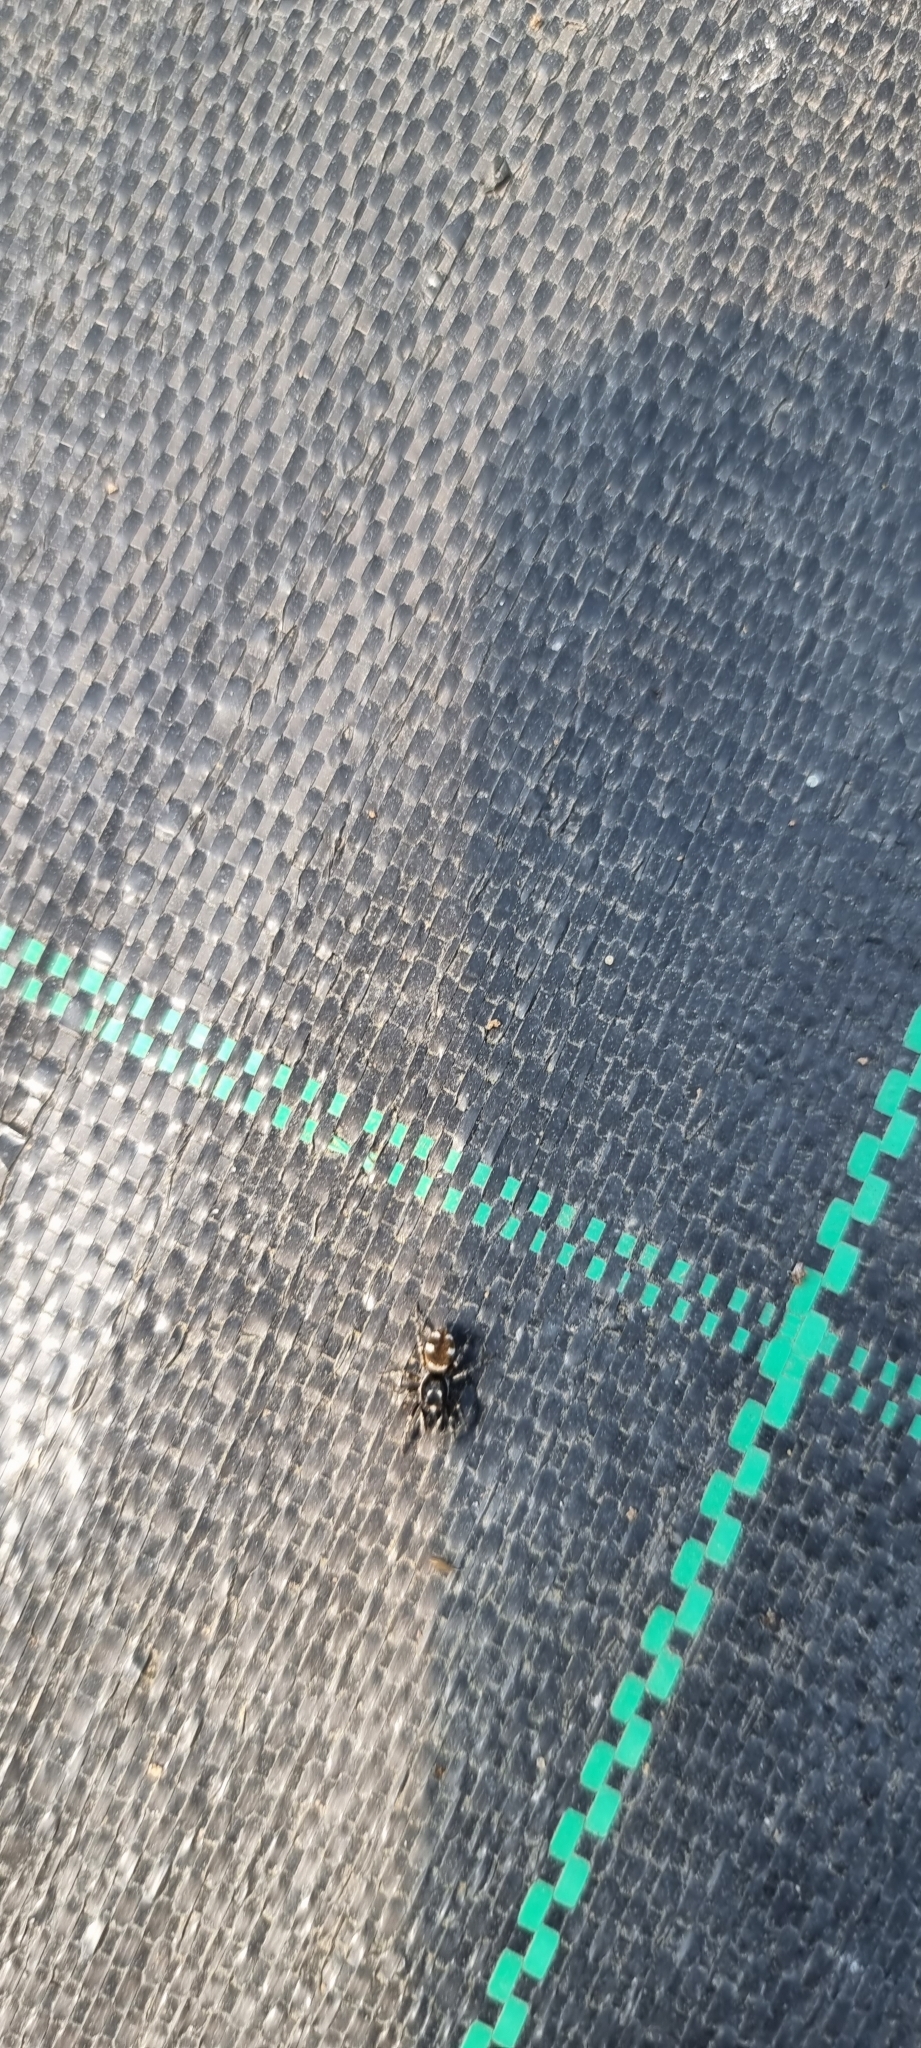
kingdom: Animalia
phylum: Arthropoda
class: Arachnida
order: Araneae
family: Salticidae
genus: Salticus
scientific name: Salticus scenicus
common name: Zebra jumper
